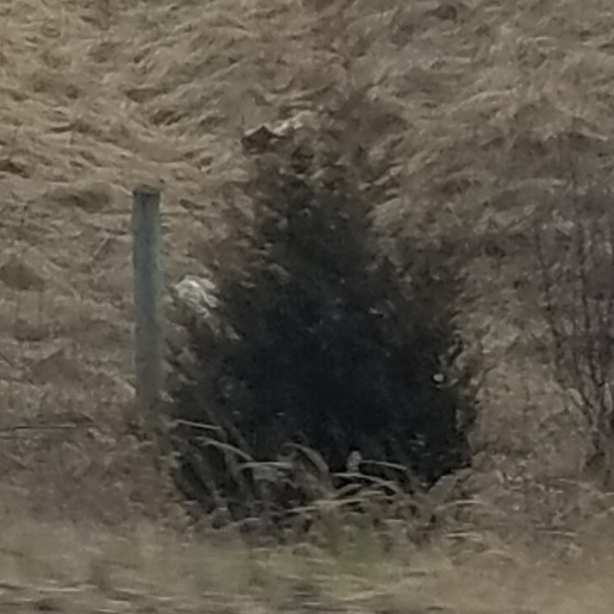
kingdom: Plantae
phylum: Tracheophyta
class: Pinopsida
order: Pinales
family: Cupressaceae
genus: Juniperus
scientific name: Juniperus virginiana
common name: Red juniper
